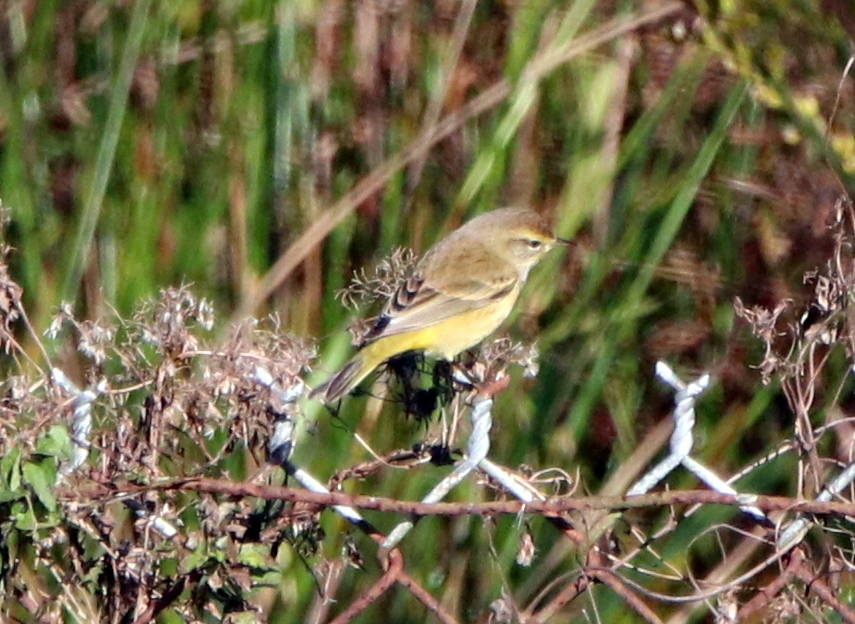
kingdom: Animalia
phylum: Chordata
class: Aves
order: Passeriformes
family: Parulidae
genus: Setophaga
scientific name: Setophaga palmarum
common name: Palm warbler
